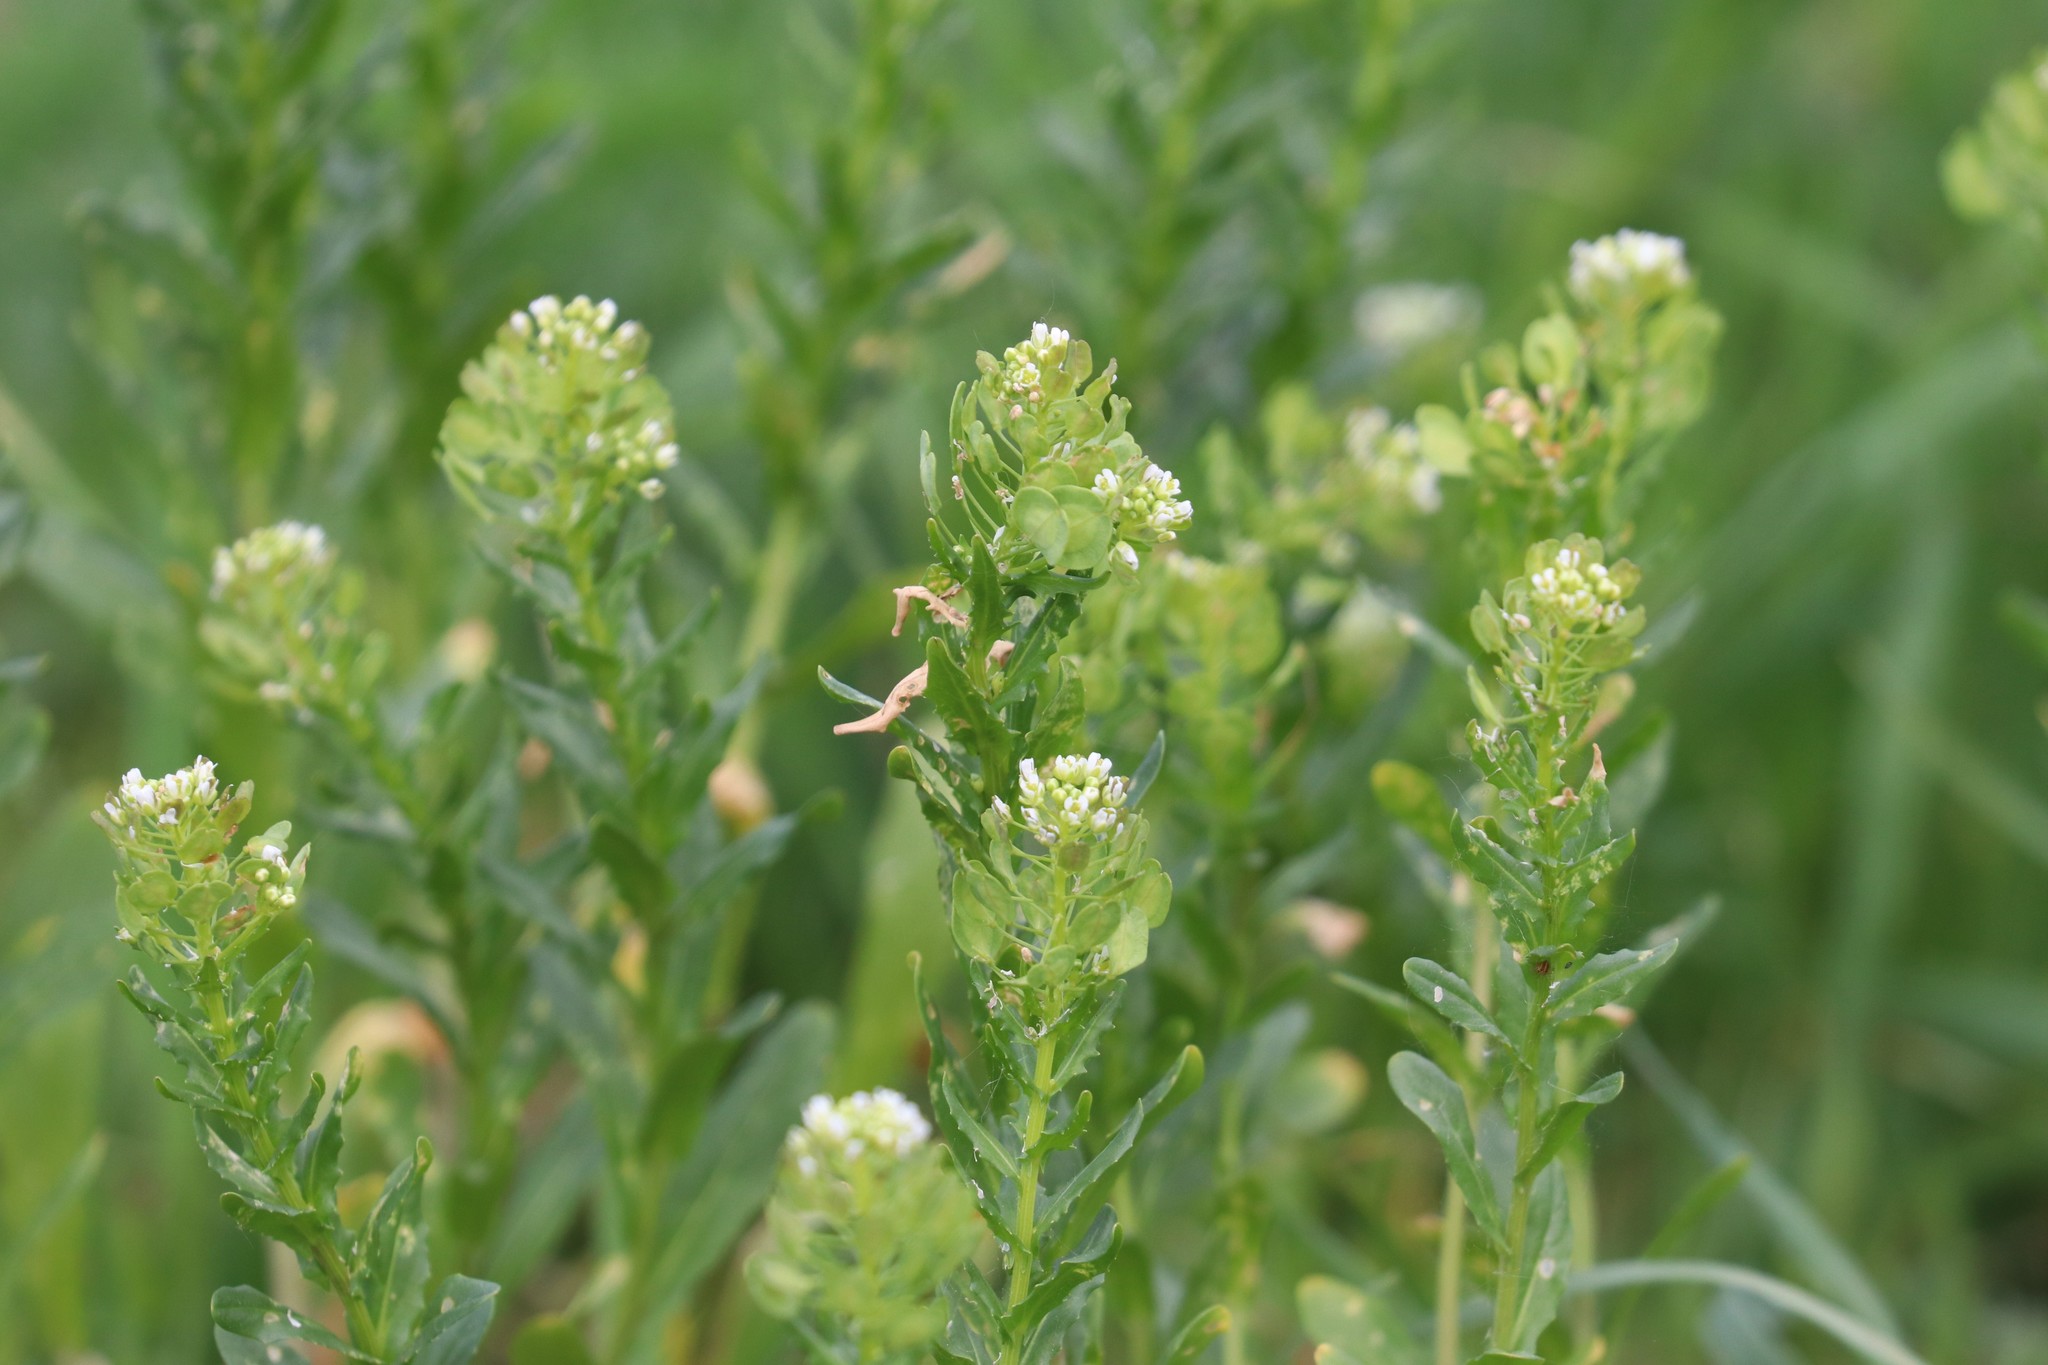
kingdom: Plantae
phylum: Tracheophyta
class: Magnoliopsida
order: Brassicales
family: Brassicaceae
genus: Thlaspi
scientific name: Thlaspi arvense
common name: Field pennycress
